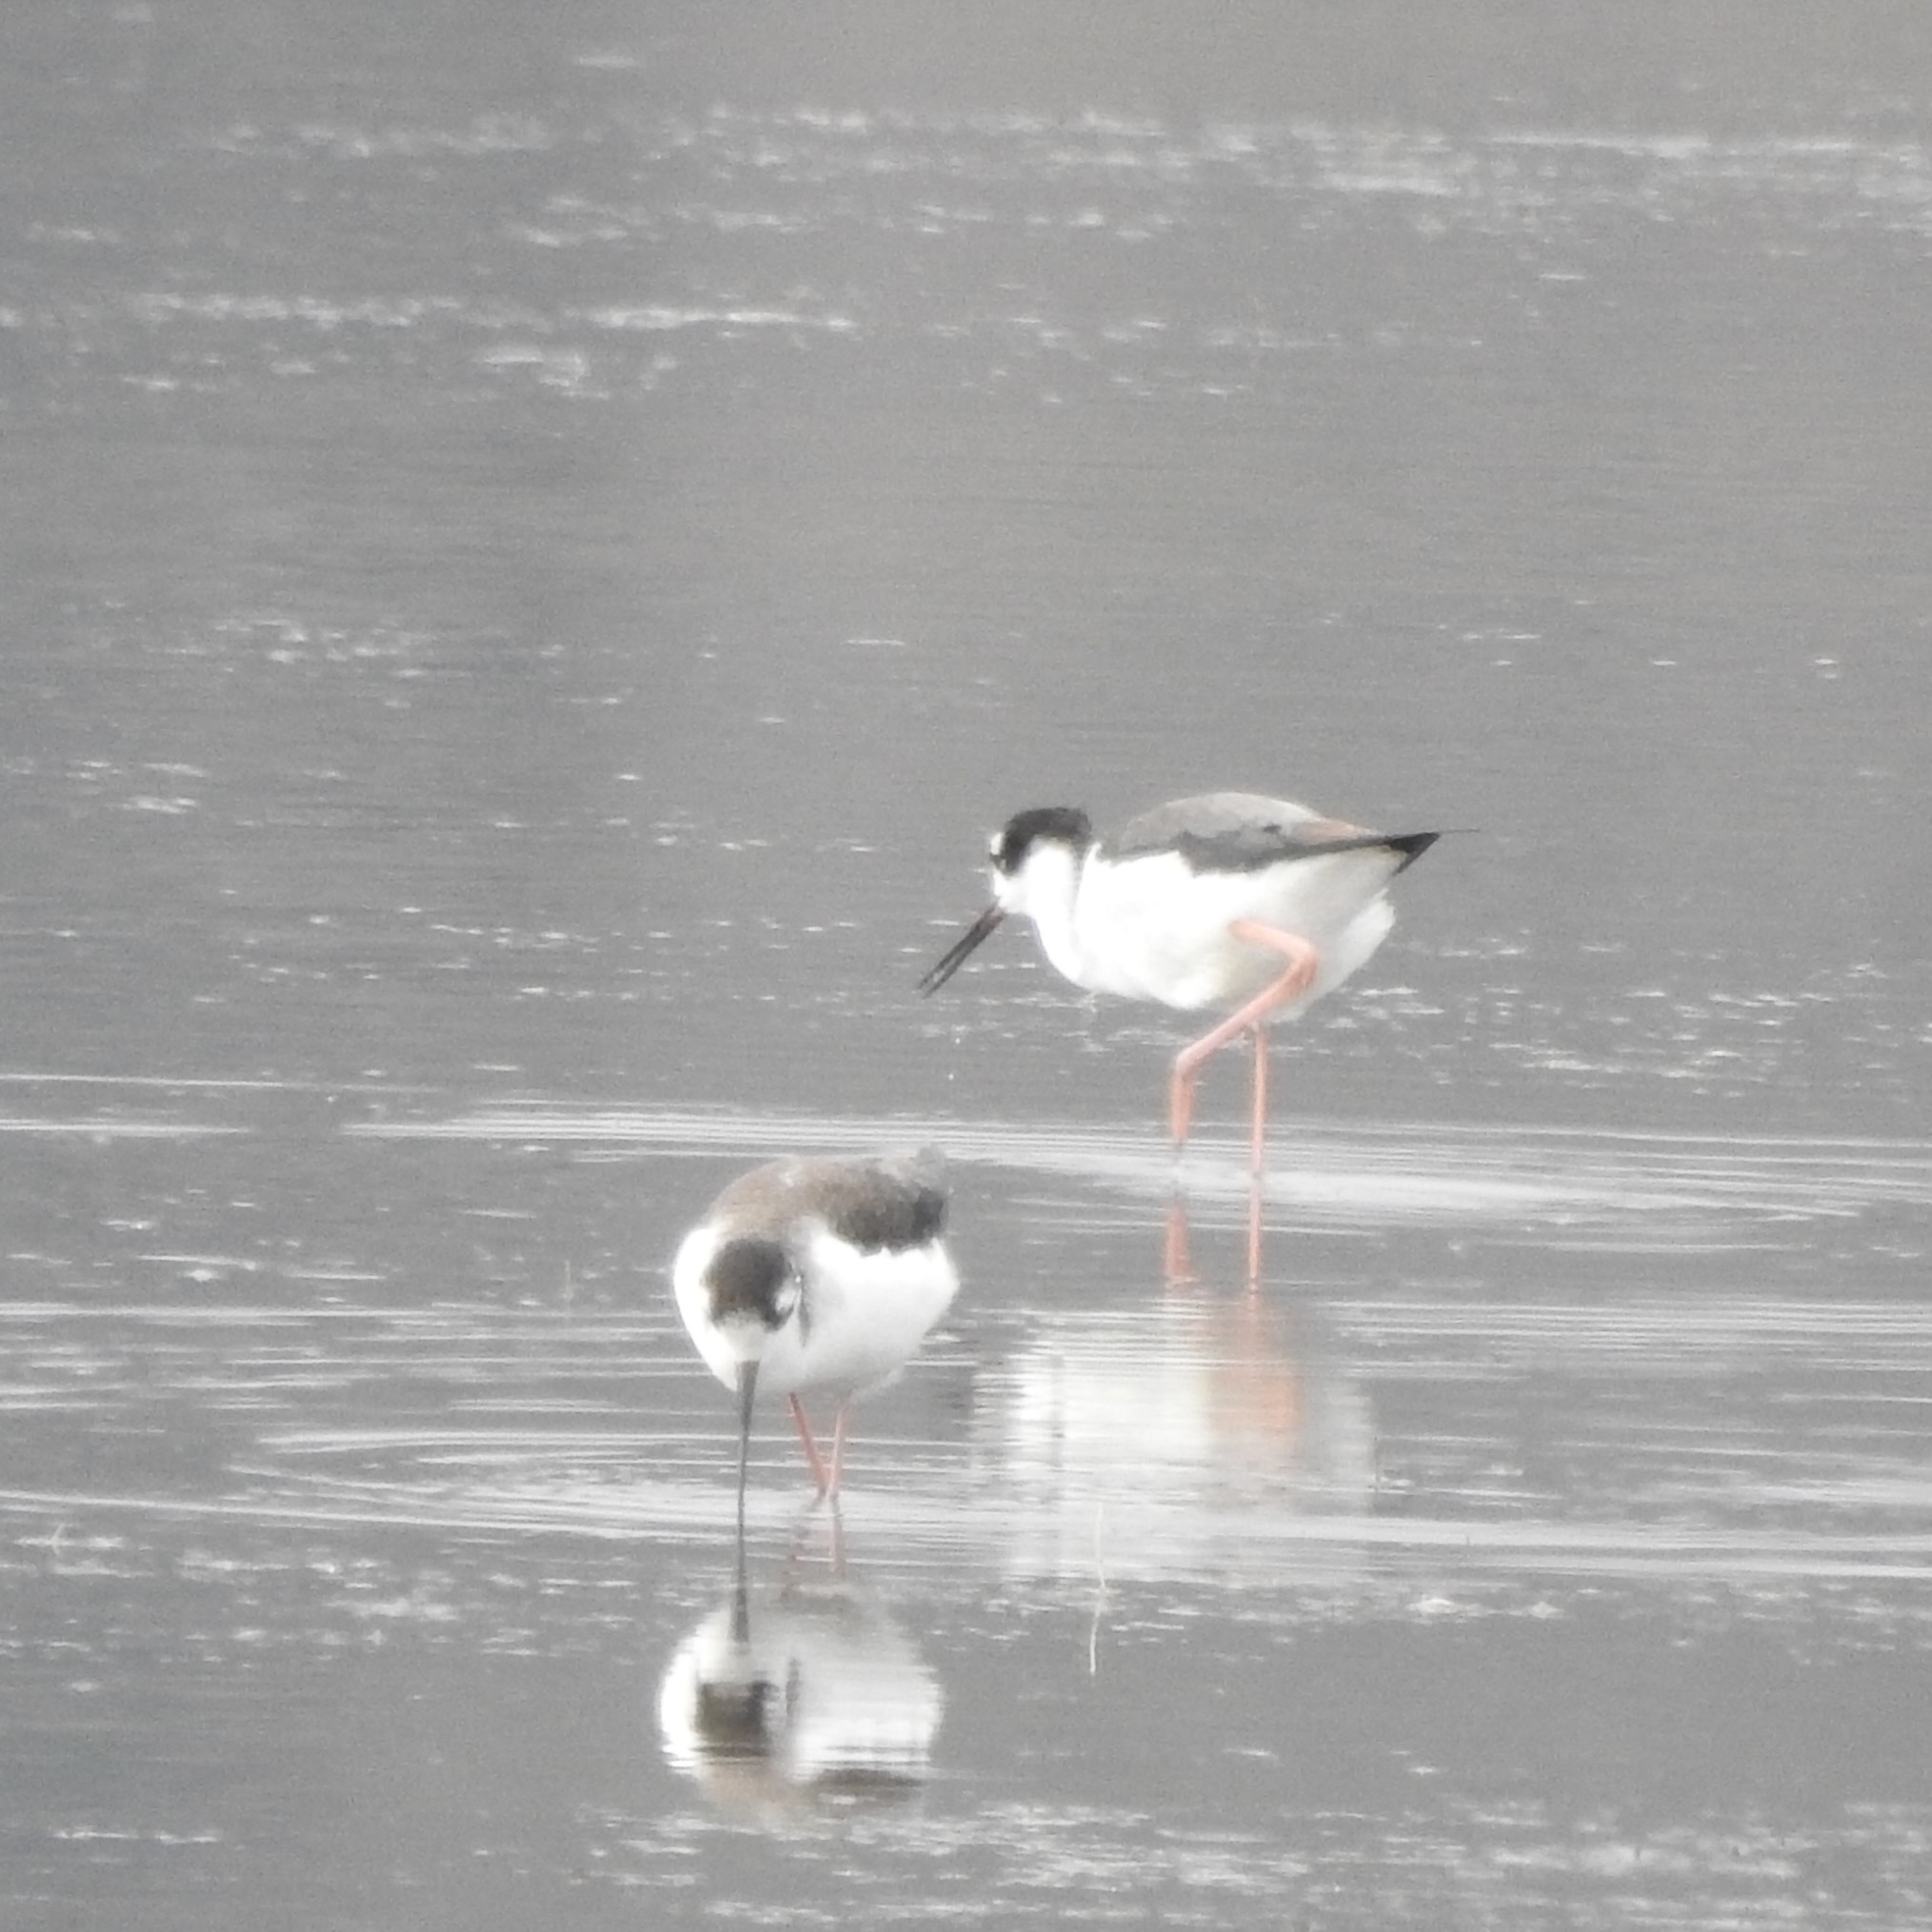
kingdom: Animalia
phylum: Chordata
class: Aves
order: Charadriiformes
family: Recurvirostridae
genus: Himantopus
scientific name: Himantopus mexicanus
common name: Black-necked stilt
